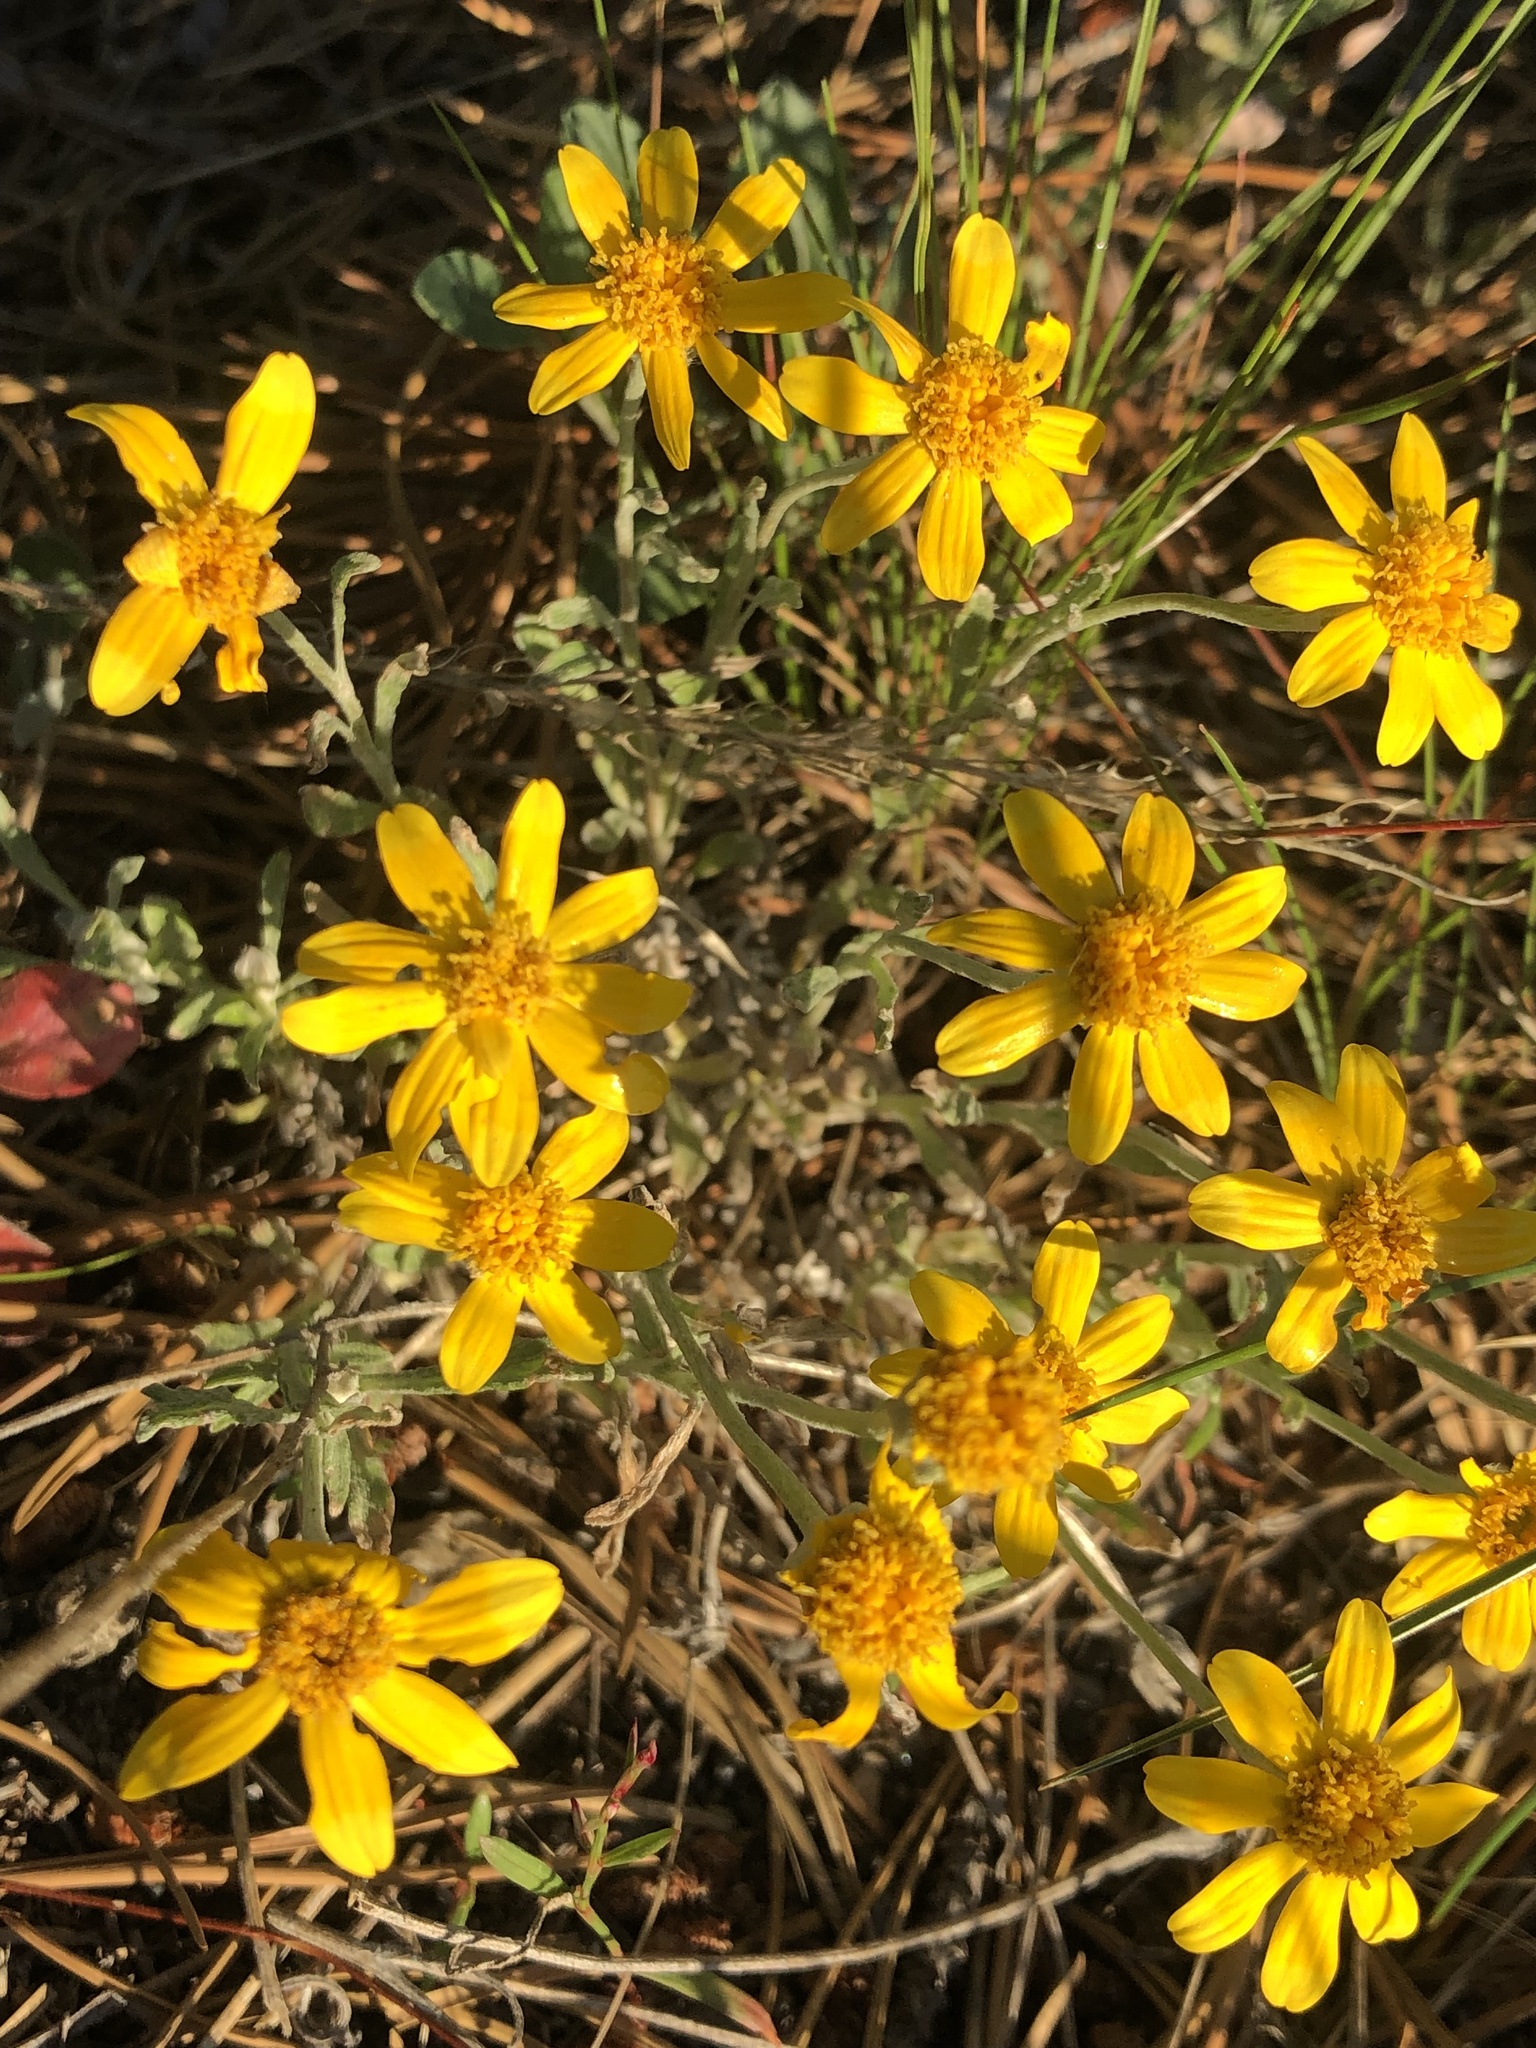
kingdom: Plantae
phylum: Tracheophyta
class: Magnoliopsida
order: Asterales
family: Asteraceae
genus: Eriophyllum
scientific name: Eriophyllum lanatum
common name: Common woolly-sunflower
